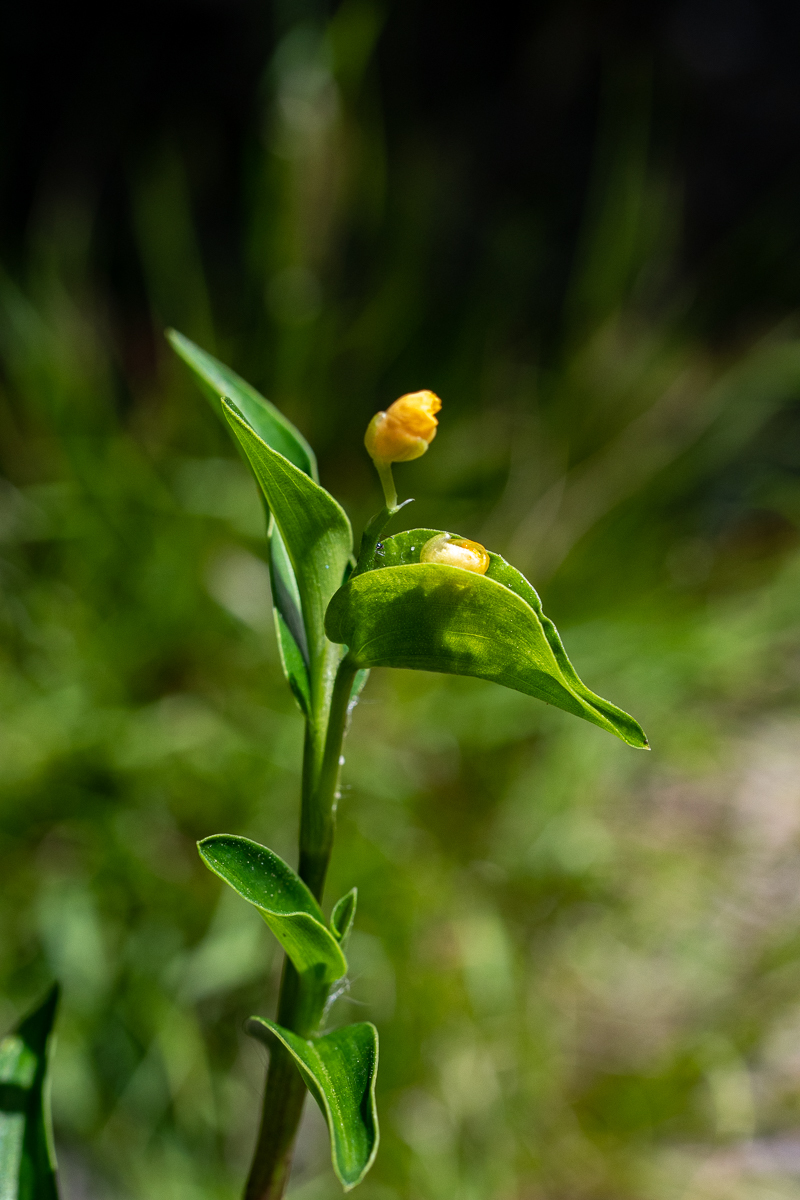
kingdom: Plantae
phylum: Tracheophyta
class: Liliopsida
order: Commelinales
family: Commelinaceae
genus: Commelina
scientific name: Commelina africana
